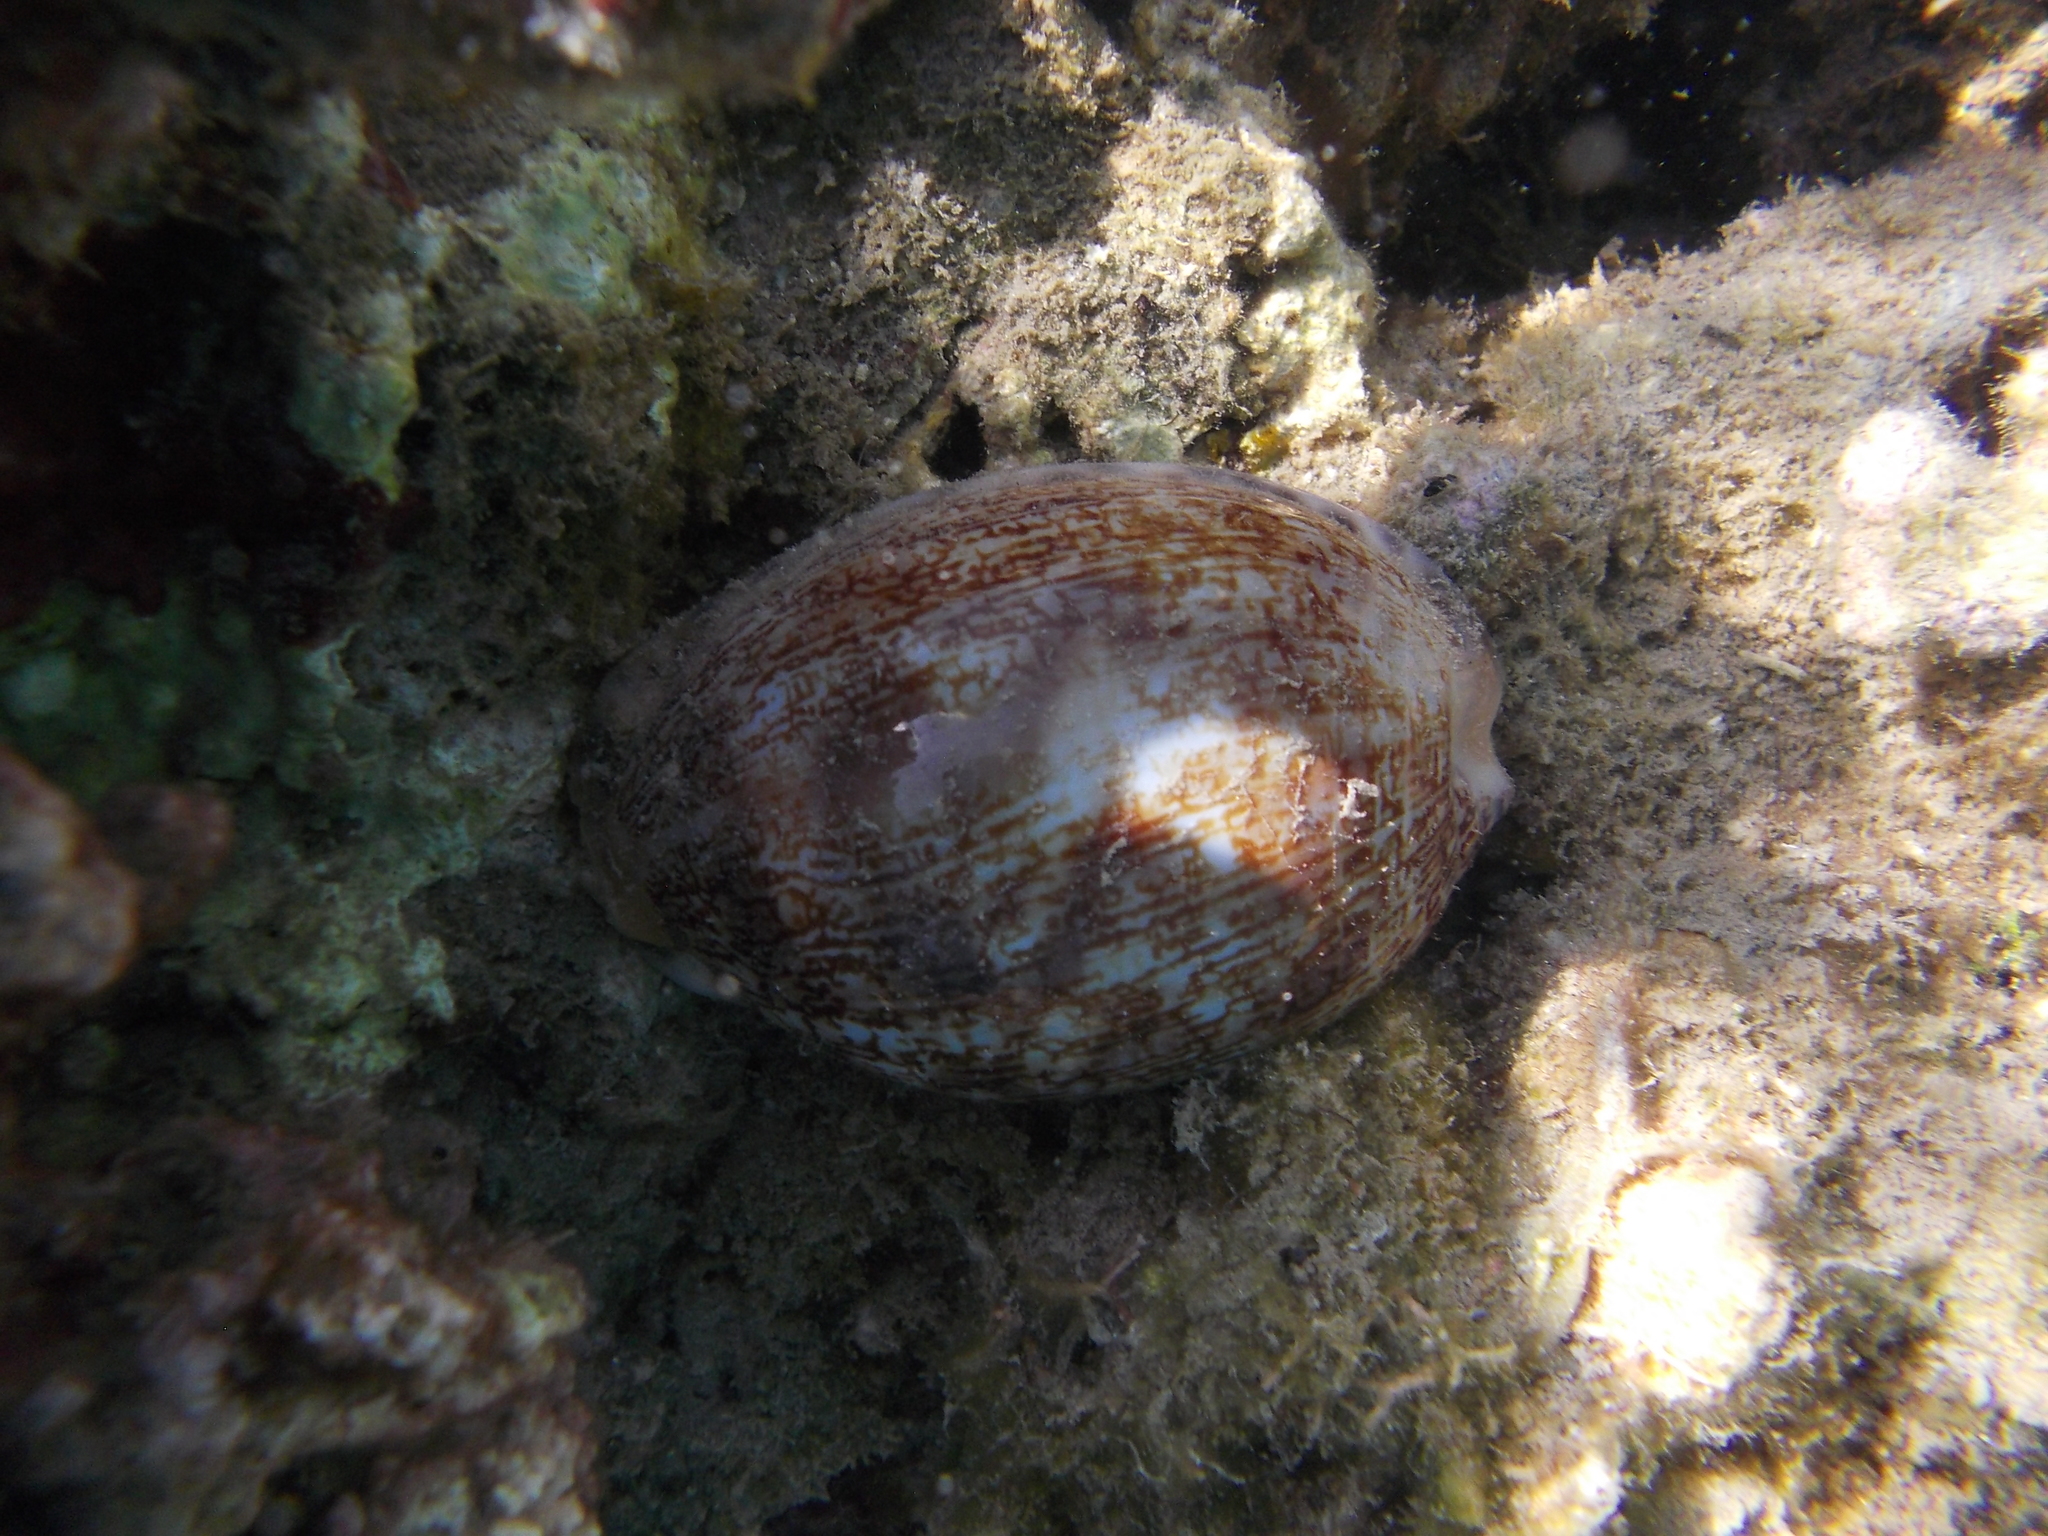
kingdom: Animalia
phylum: Mollusca
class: Gastropoda
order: Littorinimorpha
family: Cypraeidae
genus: Mauritia
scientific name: Mauritia arabica
